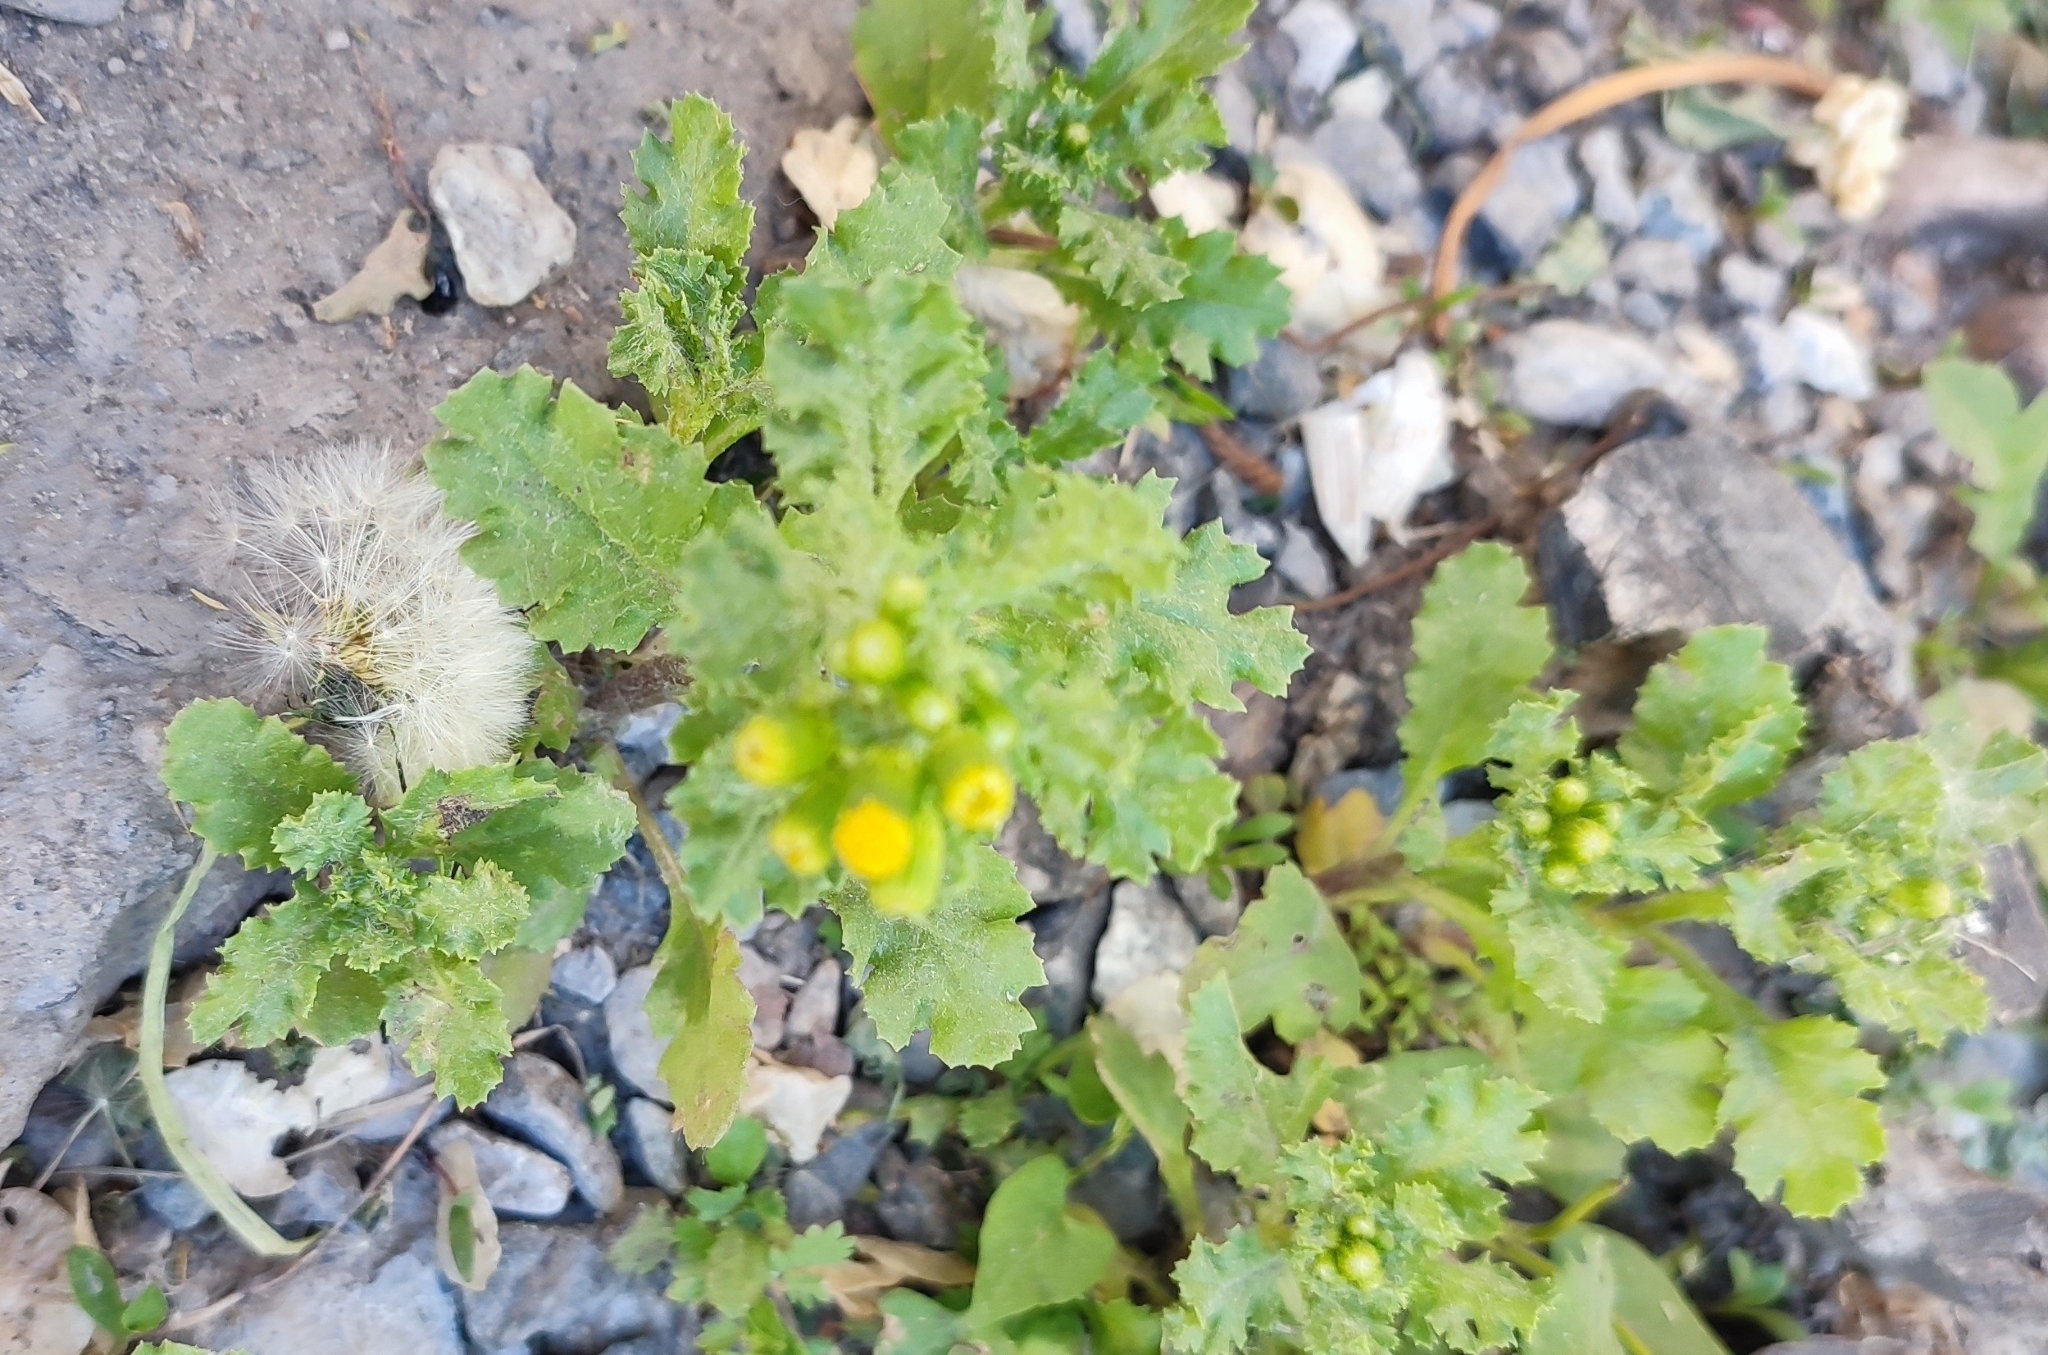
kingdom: Plantae
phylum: Tracheophyta
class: Magnoliopsida
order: Asterales
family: Asteraceae
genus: Senecio
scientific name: Senecio vulgaris
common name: Old-man-in-the-spring
